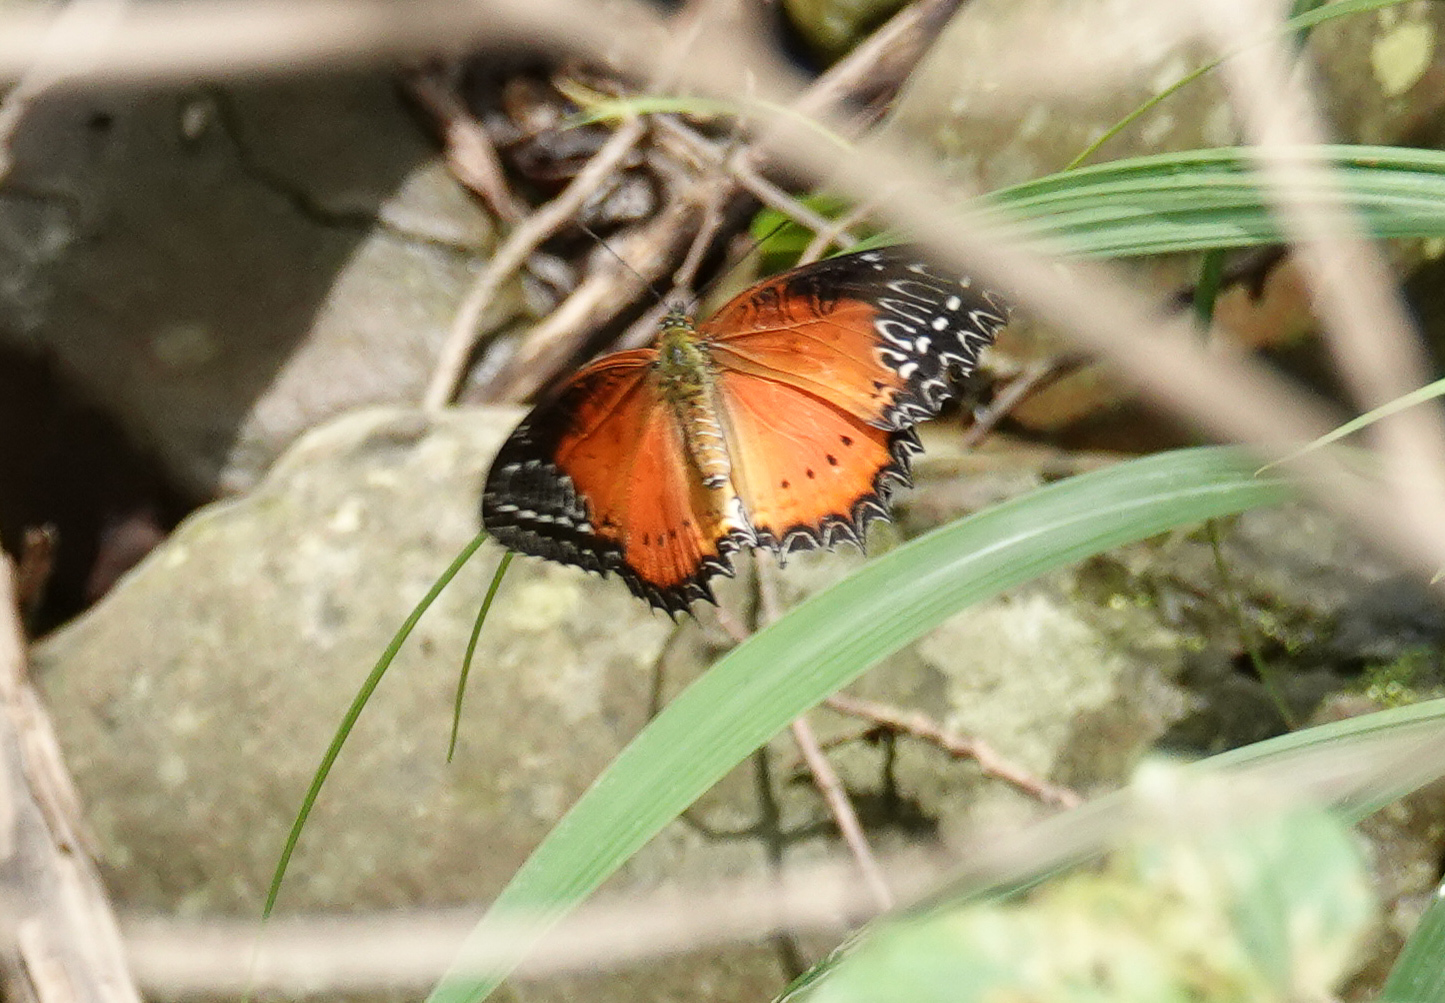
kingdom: Animalia
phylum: Arthropoda
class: Insecta
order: Lepidoptera
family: Nymphalidae
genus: Cethosia
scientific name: Cethosia biblis
